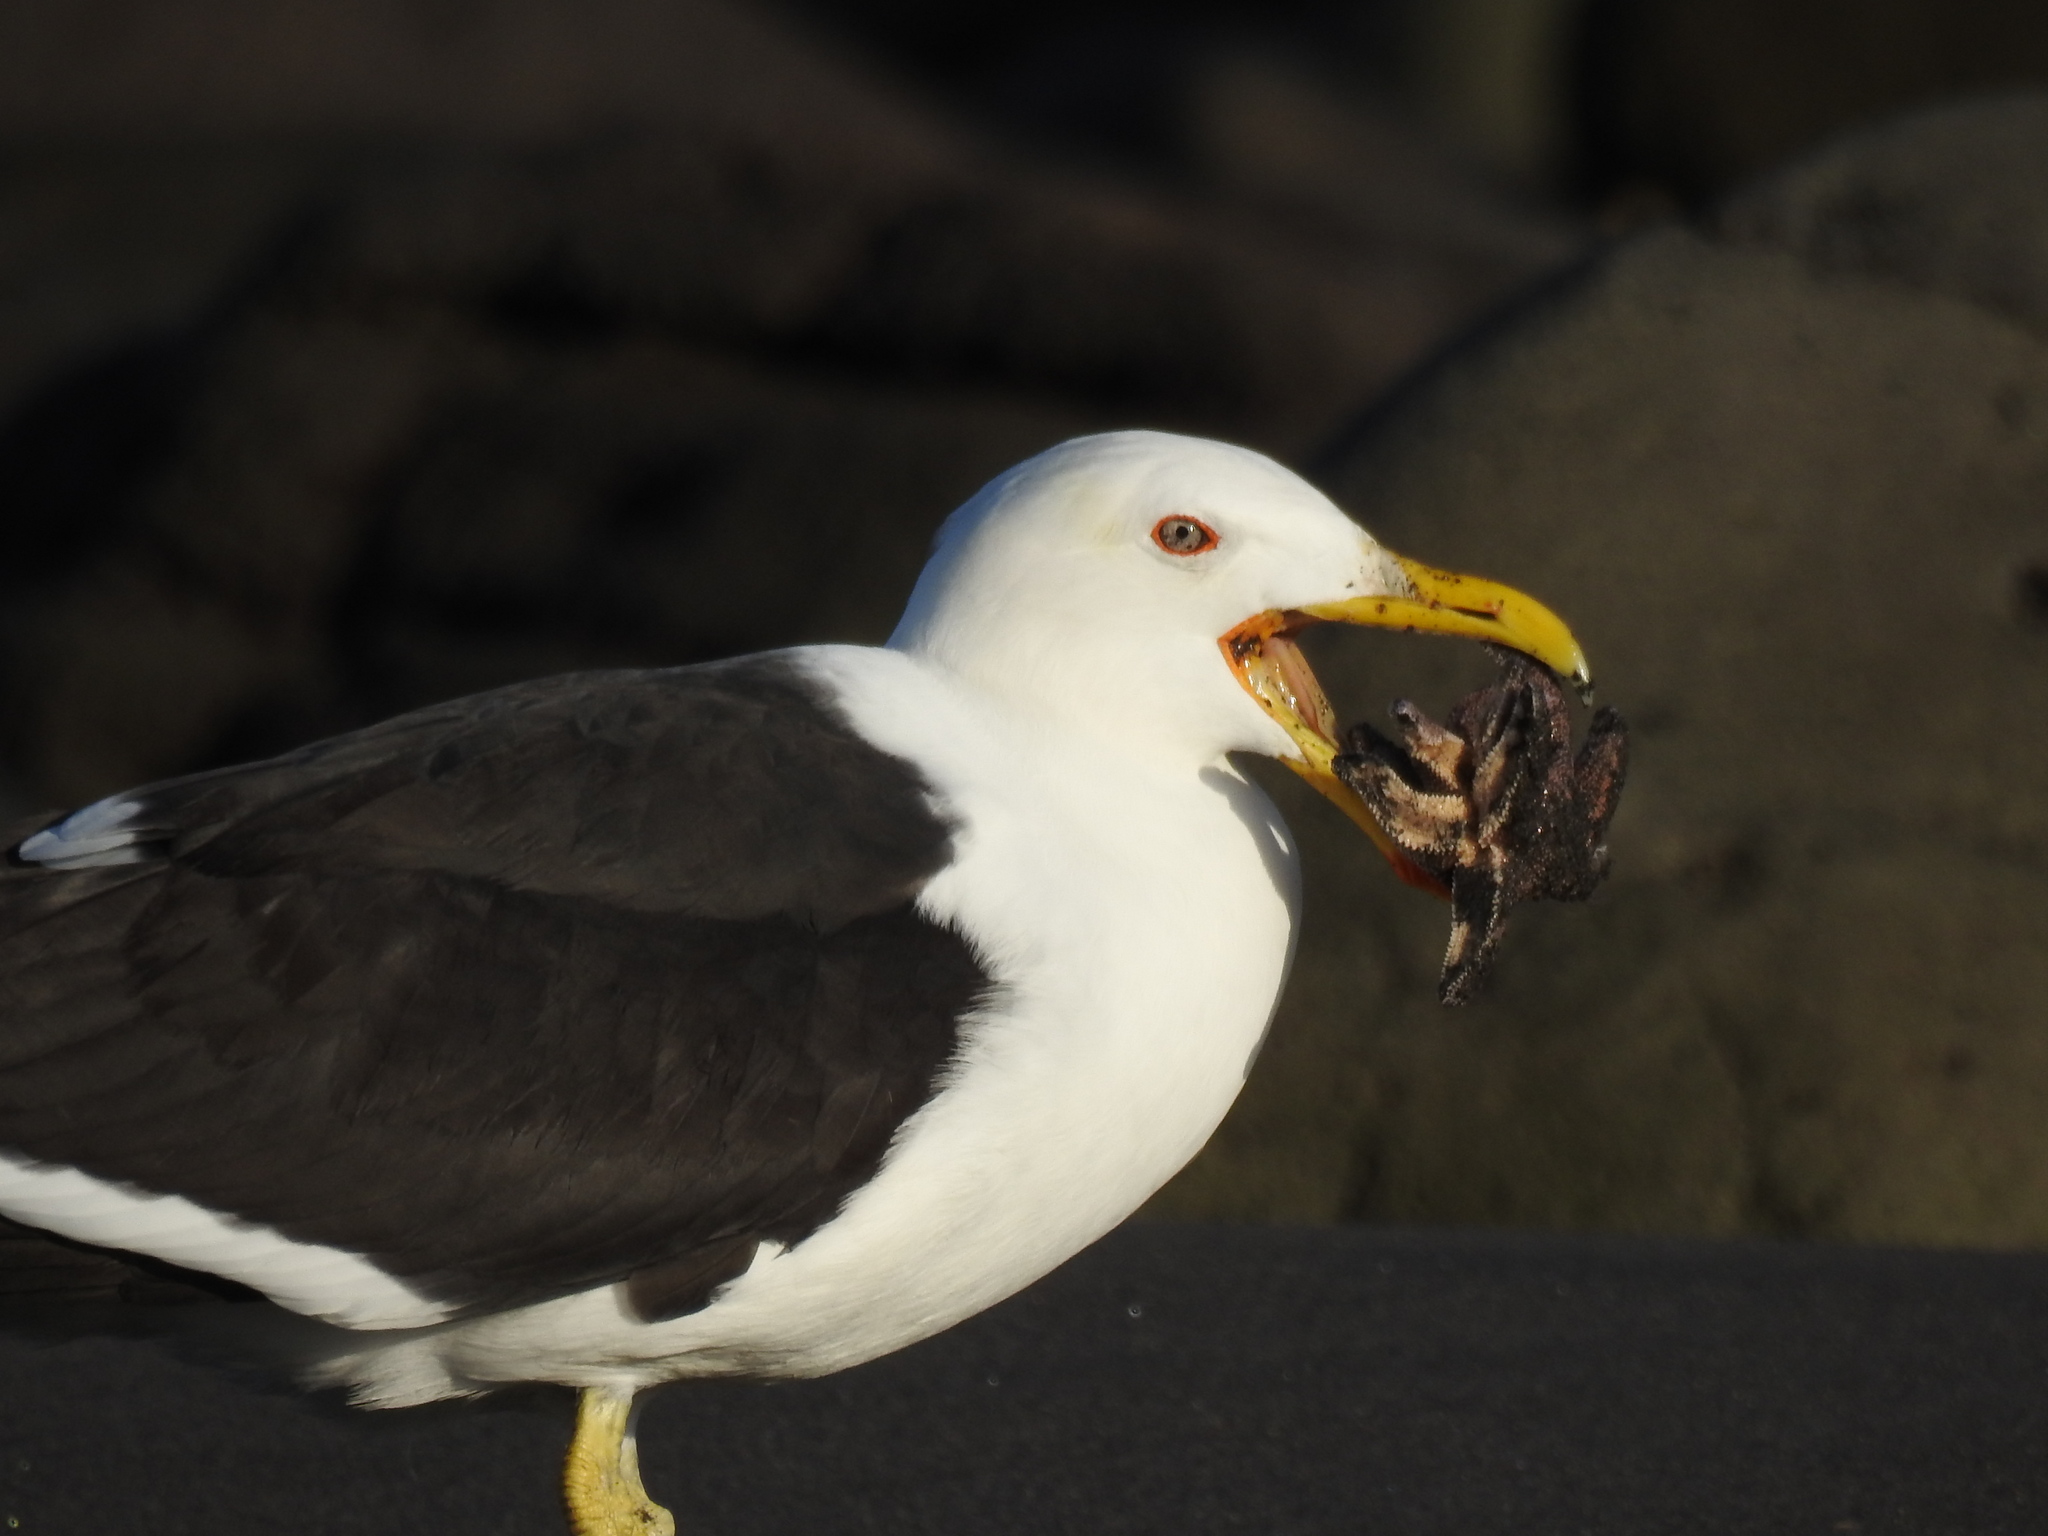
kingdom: Animalia
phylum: Chordata
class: Aves
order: Charadriiformes
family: Laridae
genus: Larus
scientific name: Larus dominicanus
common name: Kelp gull
